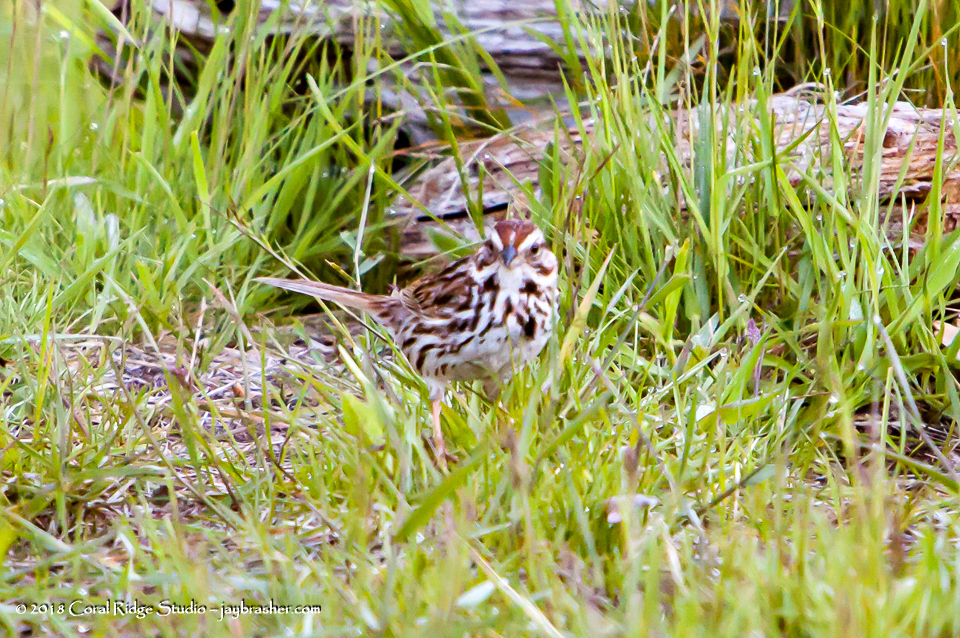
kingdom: Animalia
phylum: Chordata
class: Aves
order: Passeriformes
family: Passerellidae
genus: Melospiza
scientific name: Melospiza melodia
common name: Song sparrow
